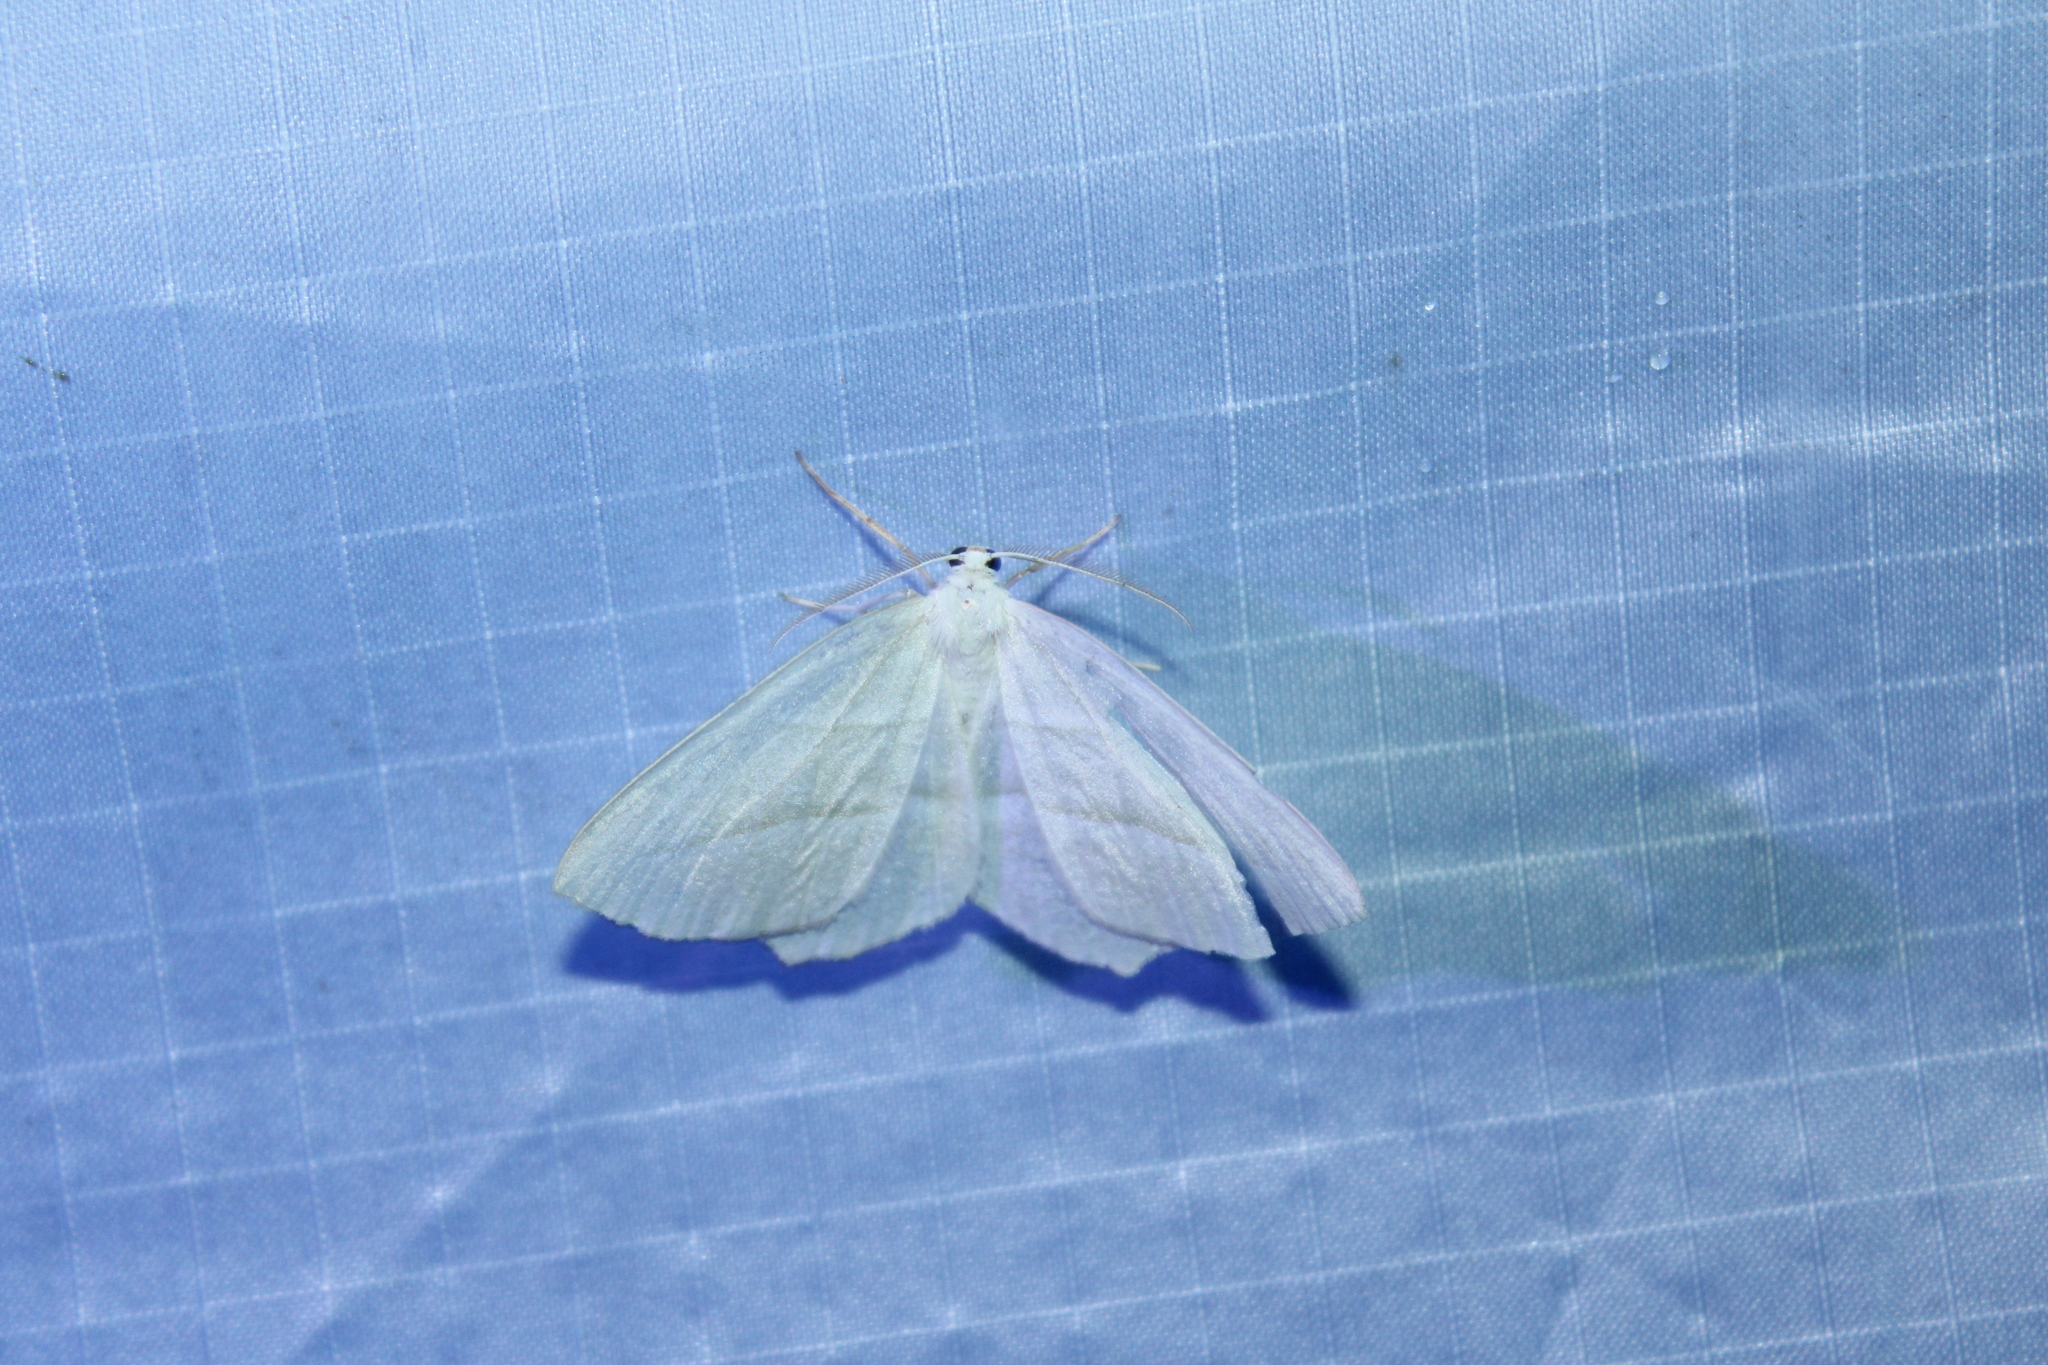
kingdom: Animalia
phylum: Arthropoda
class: Insecta
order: Lepidoptera
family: Geometridae
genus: Campaea
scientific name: Campaea perlata
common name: Fringed looper
